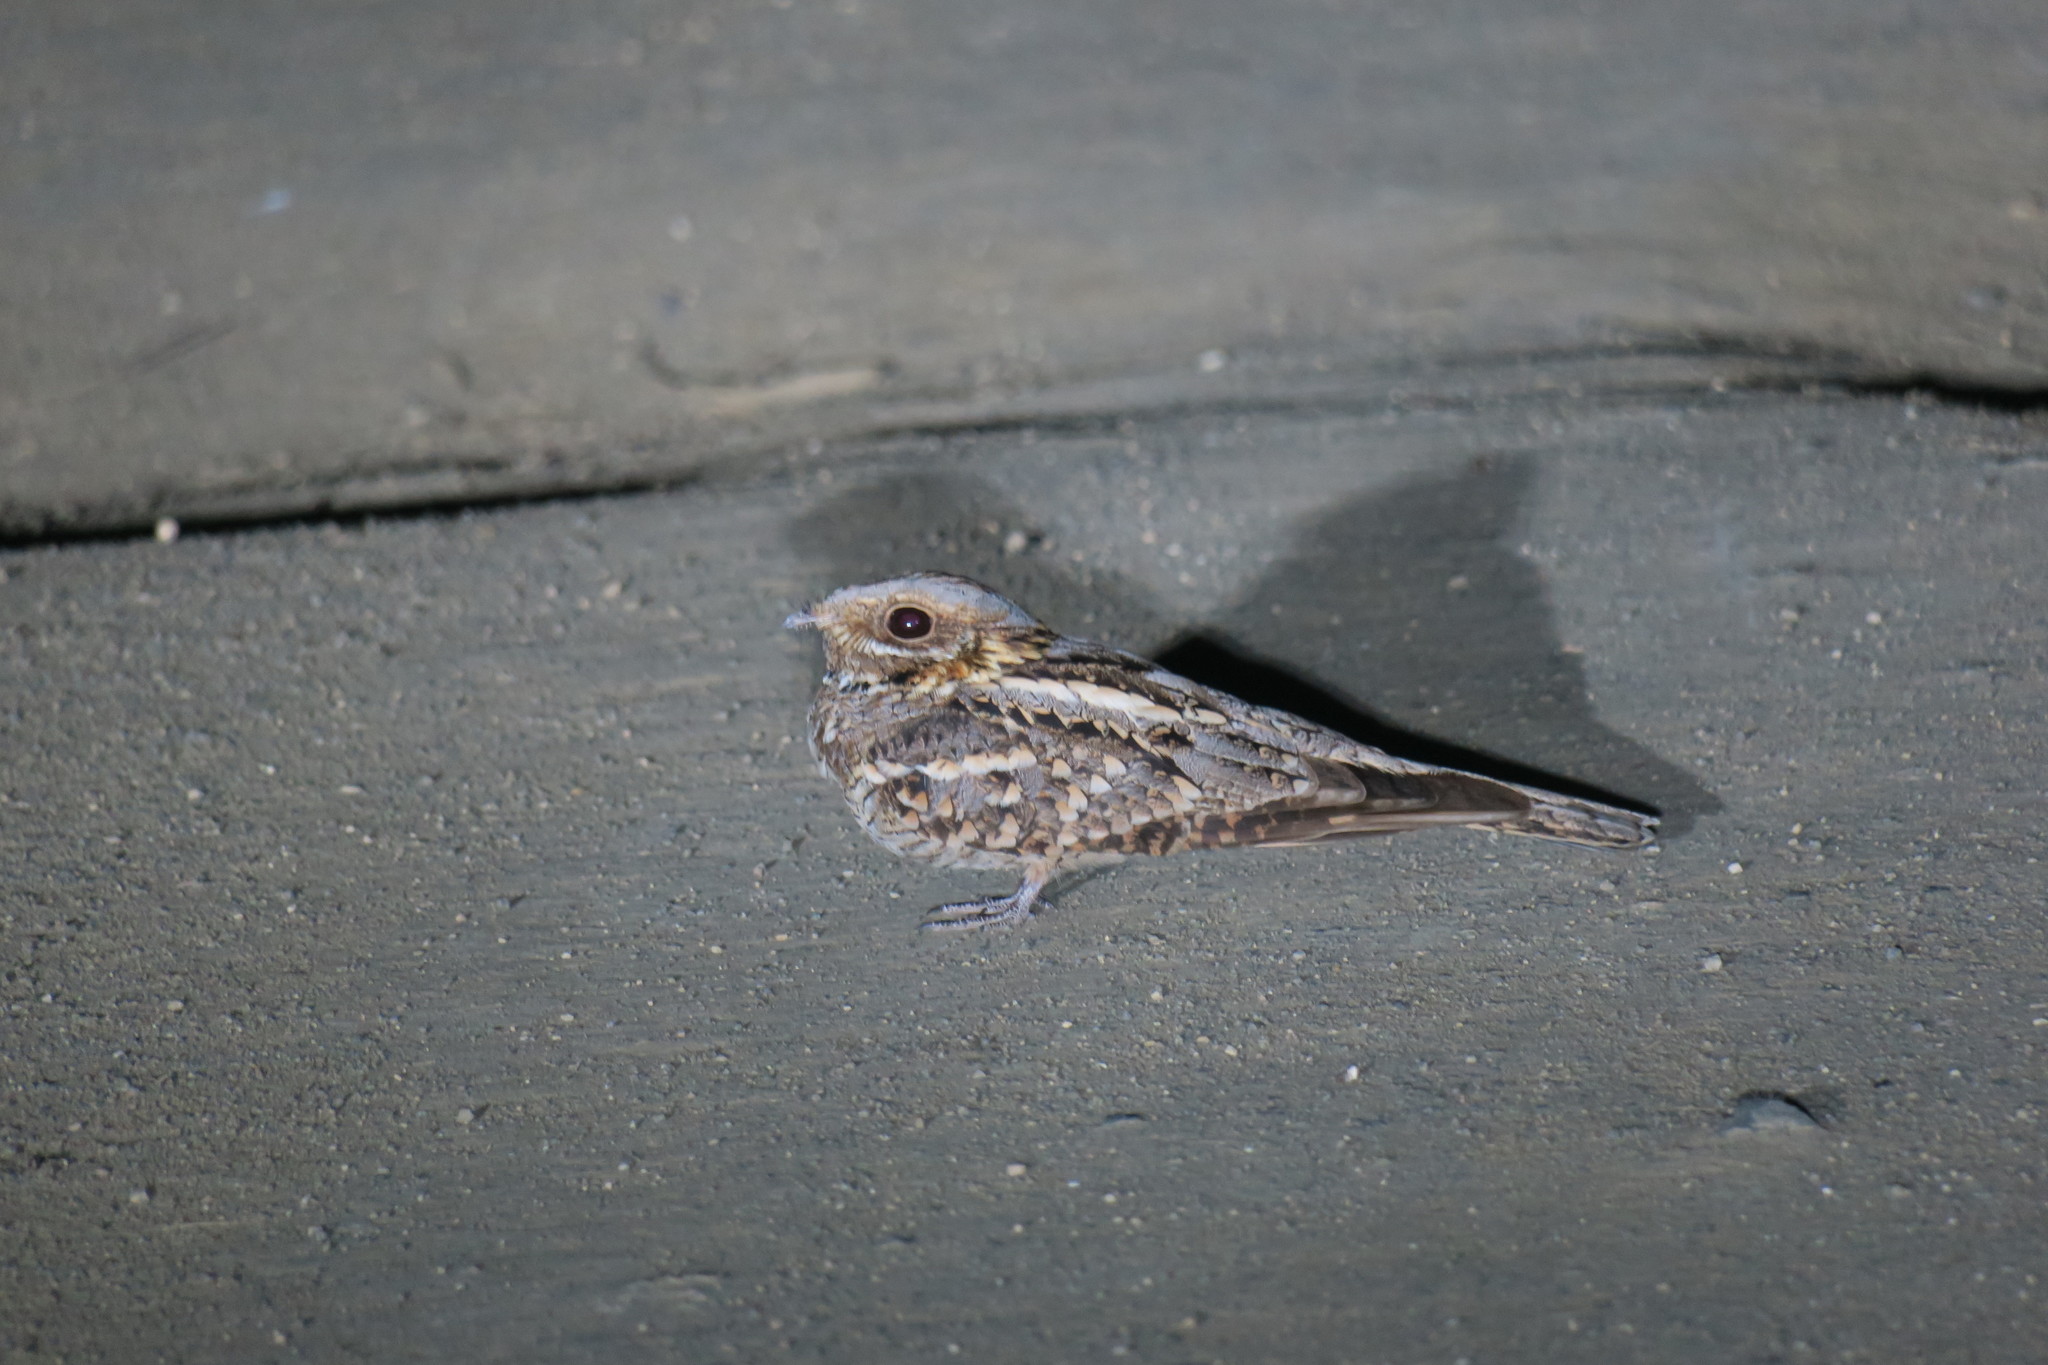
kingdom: Animalia
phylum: Chordata
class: Aves
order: Caprimulgiformes
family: Caprimulgidae
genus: Caprimulgus
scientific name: Caprimulgus ruficollis
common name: Red-necked nightjar
